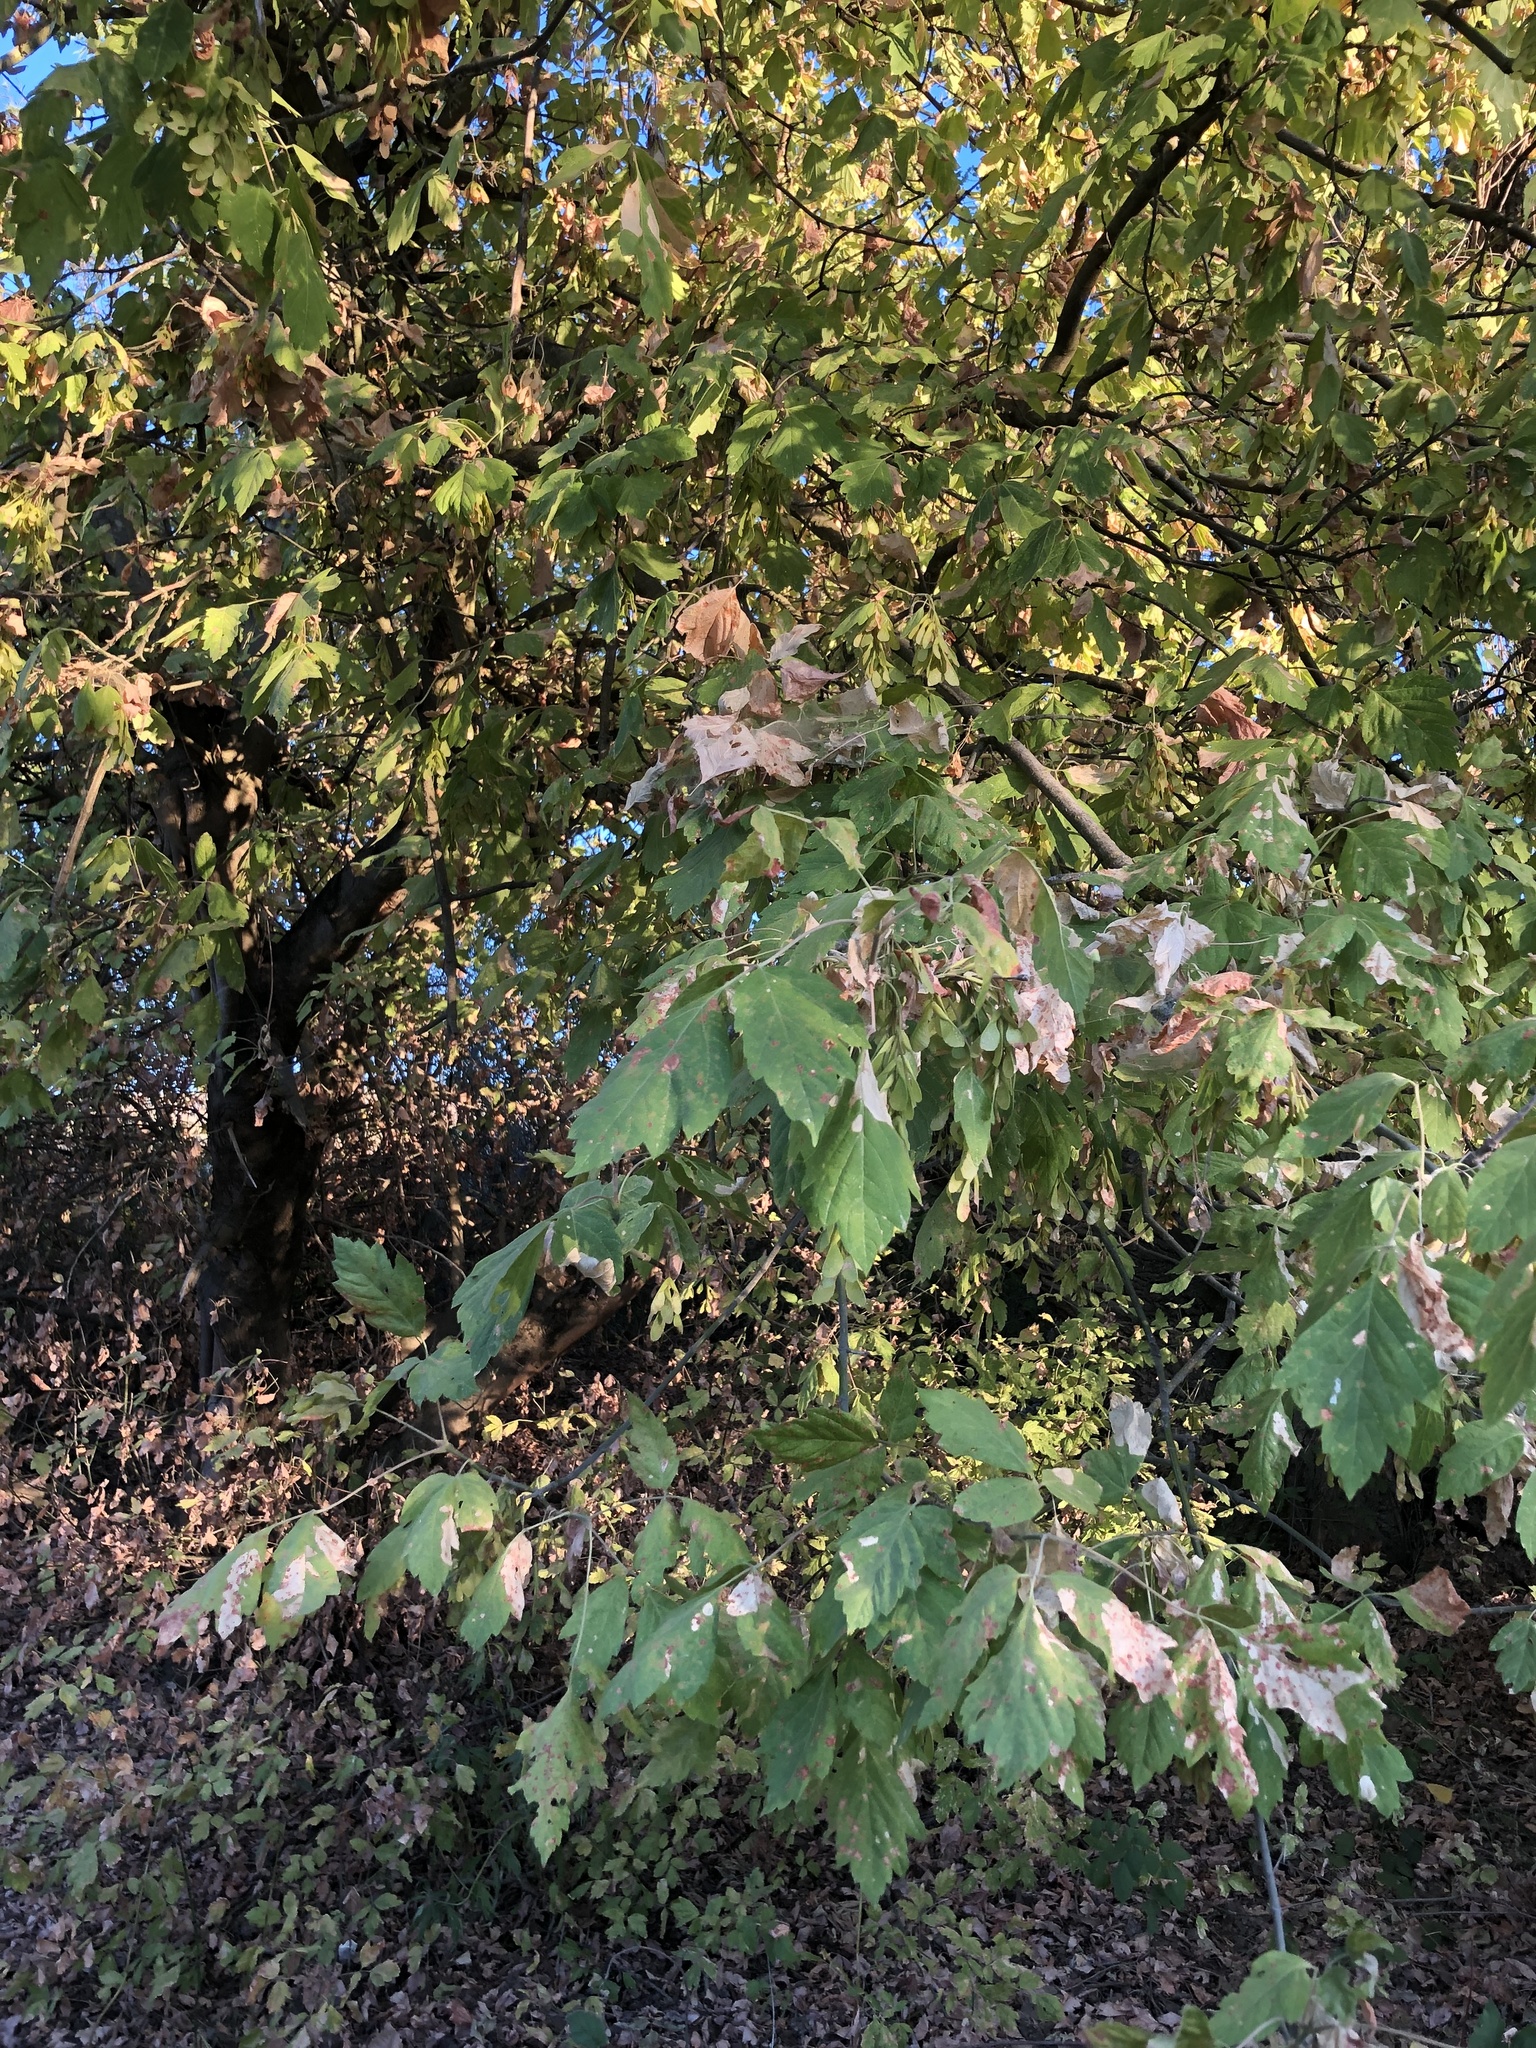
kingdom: Plantae
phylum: Tracheophyta
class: Magnoliopsida
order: Sapindales
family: Sapindaceae
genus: Acer
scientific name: Acer negundo
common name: Ashleaf maple
